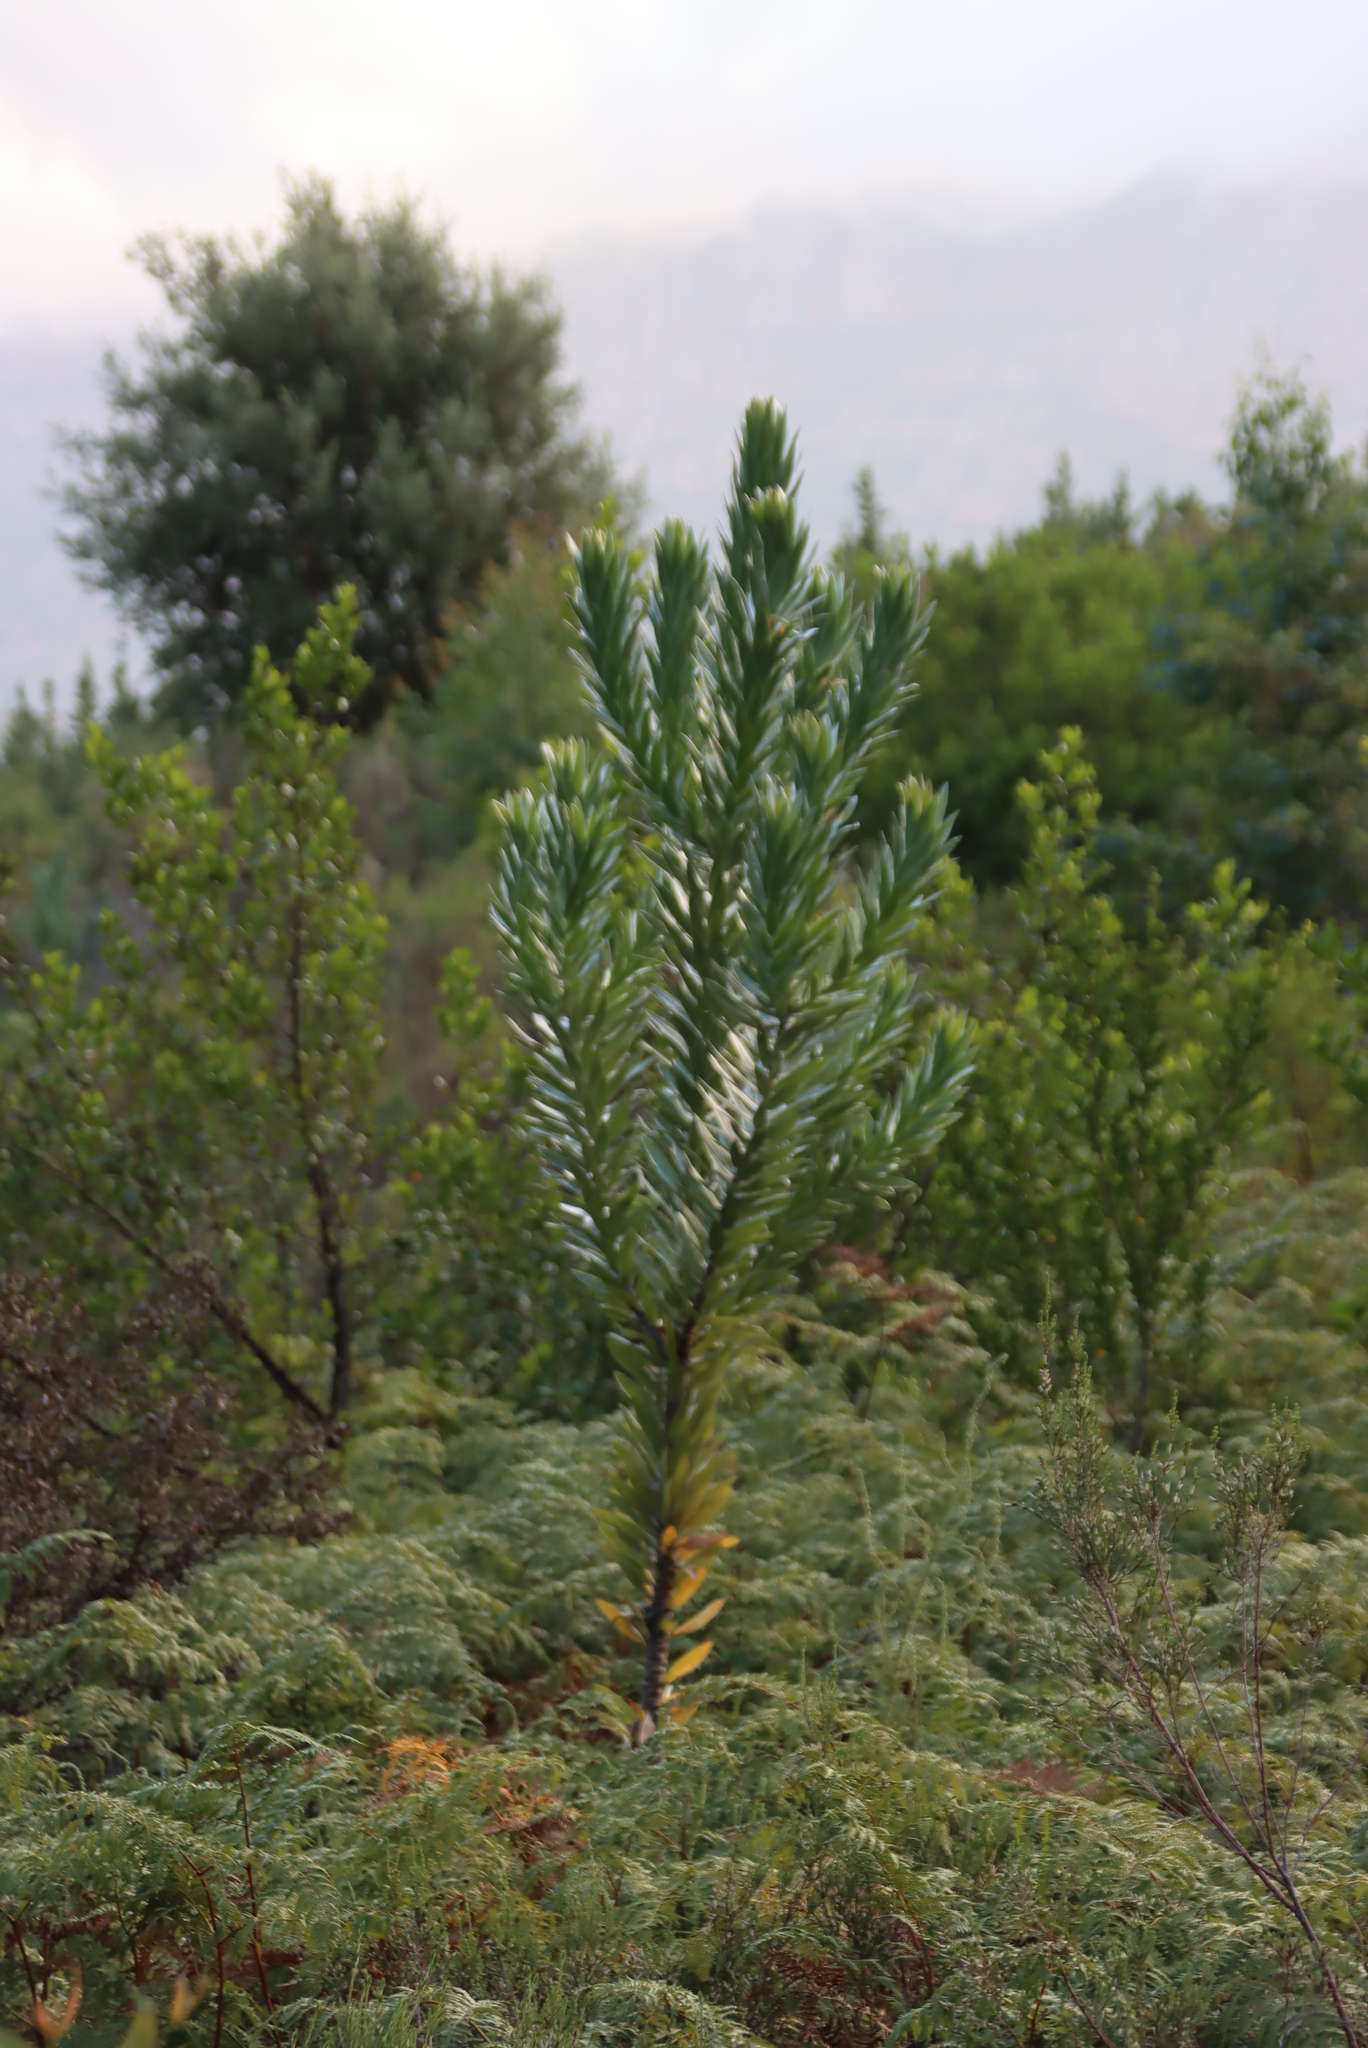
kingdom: Plantae
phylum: Tracheophyta
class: Magnoliopsida
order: Proteales
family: Proteaceae
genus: Leucadendron
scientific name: Leucadendron argenteum
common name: Cape silver tree
